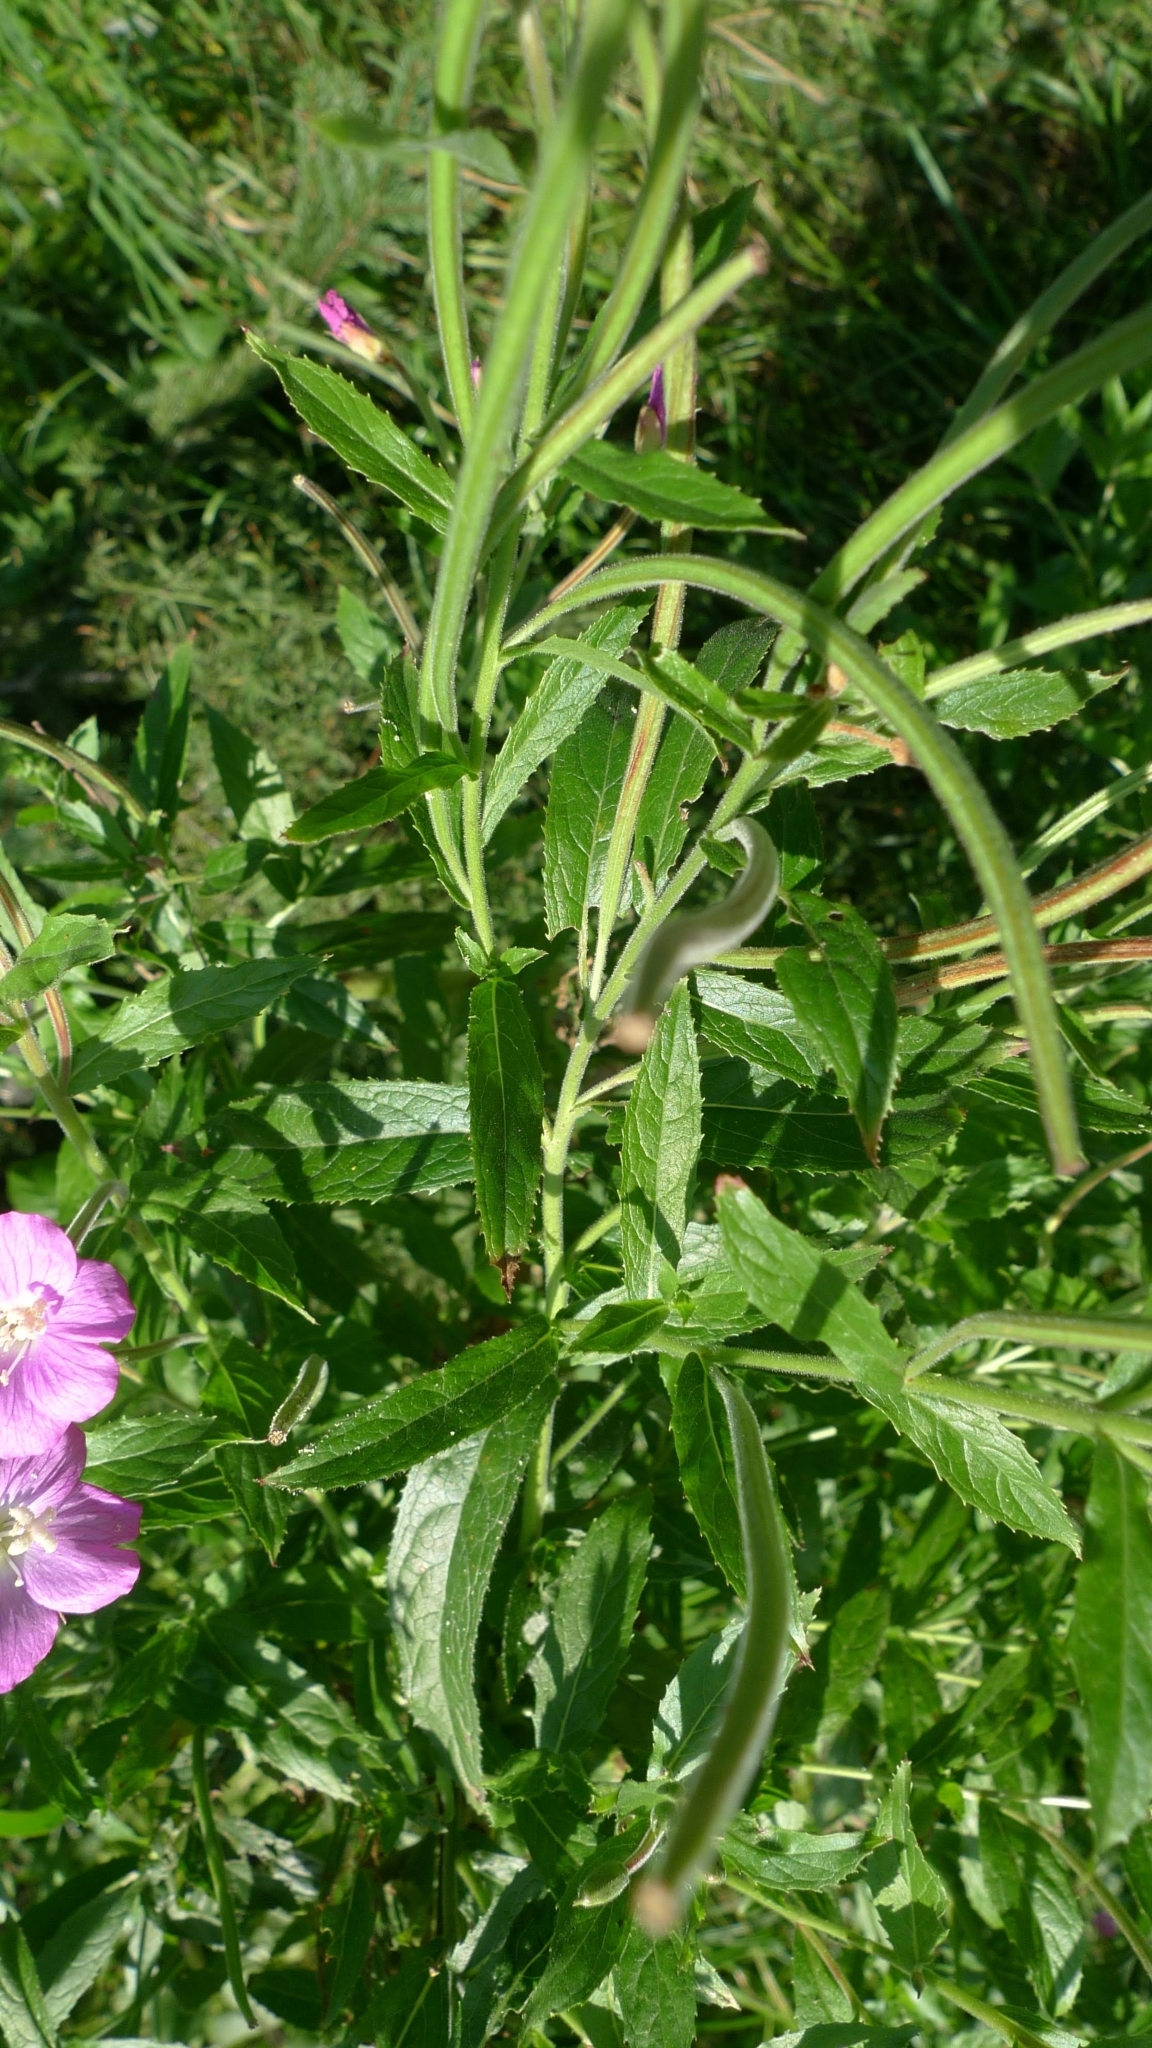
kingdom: Plantae
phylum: Tracheophyta
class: Magnoliopsida
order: Myrtales
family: Onagraceae
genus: Epilobium
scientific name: Epilobium hirsutum
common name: Great willowherb
